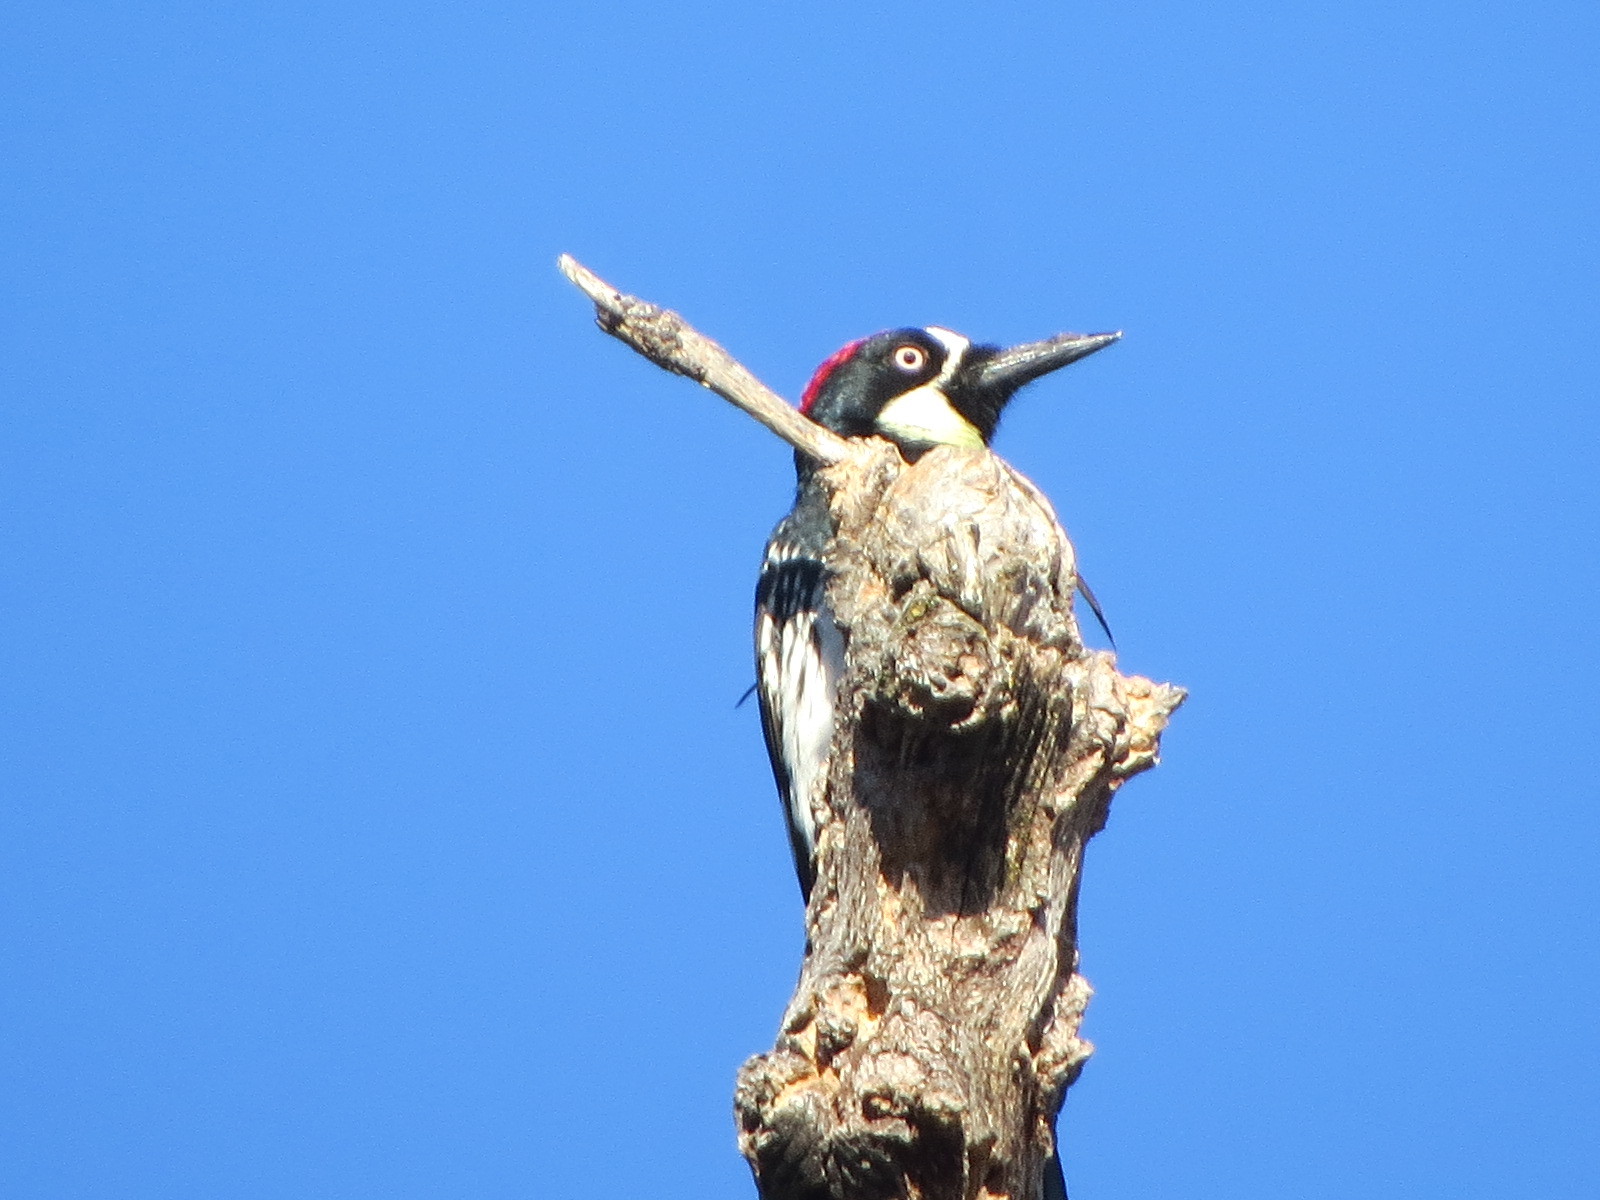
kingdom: Animalia
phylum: Chordata
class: Aves
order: Piciformes
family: Picidae
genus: Melanerpes
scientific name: Melanerpes formicivorus
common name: Acorn woodpecker
